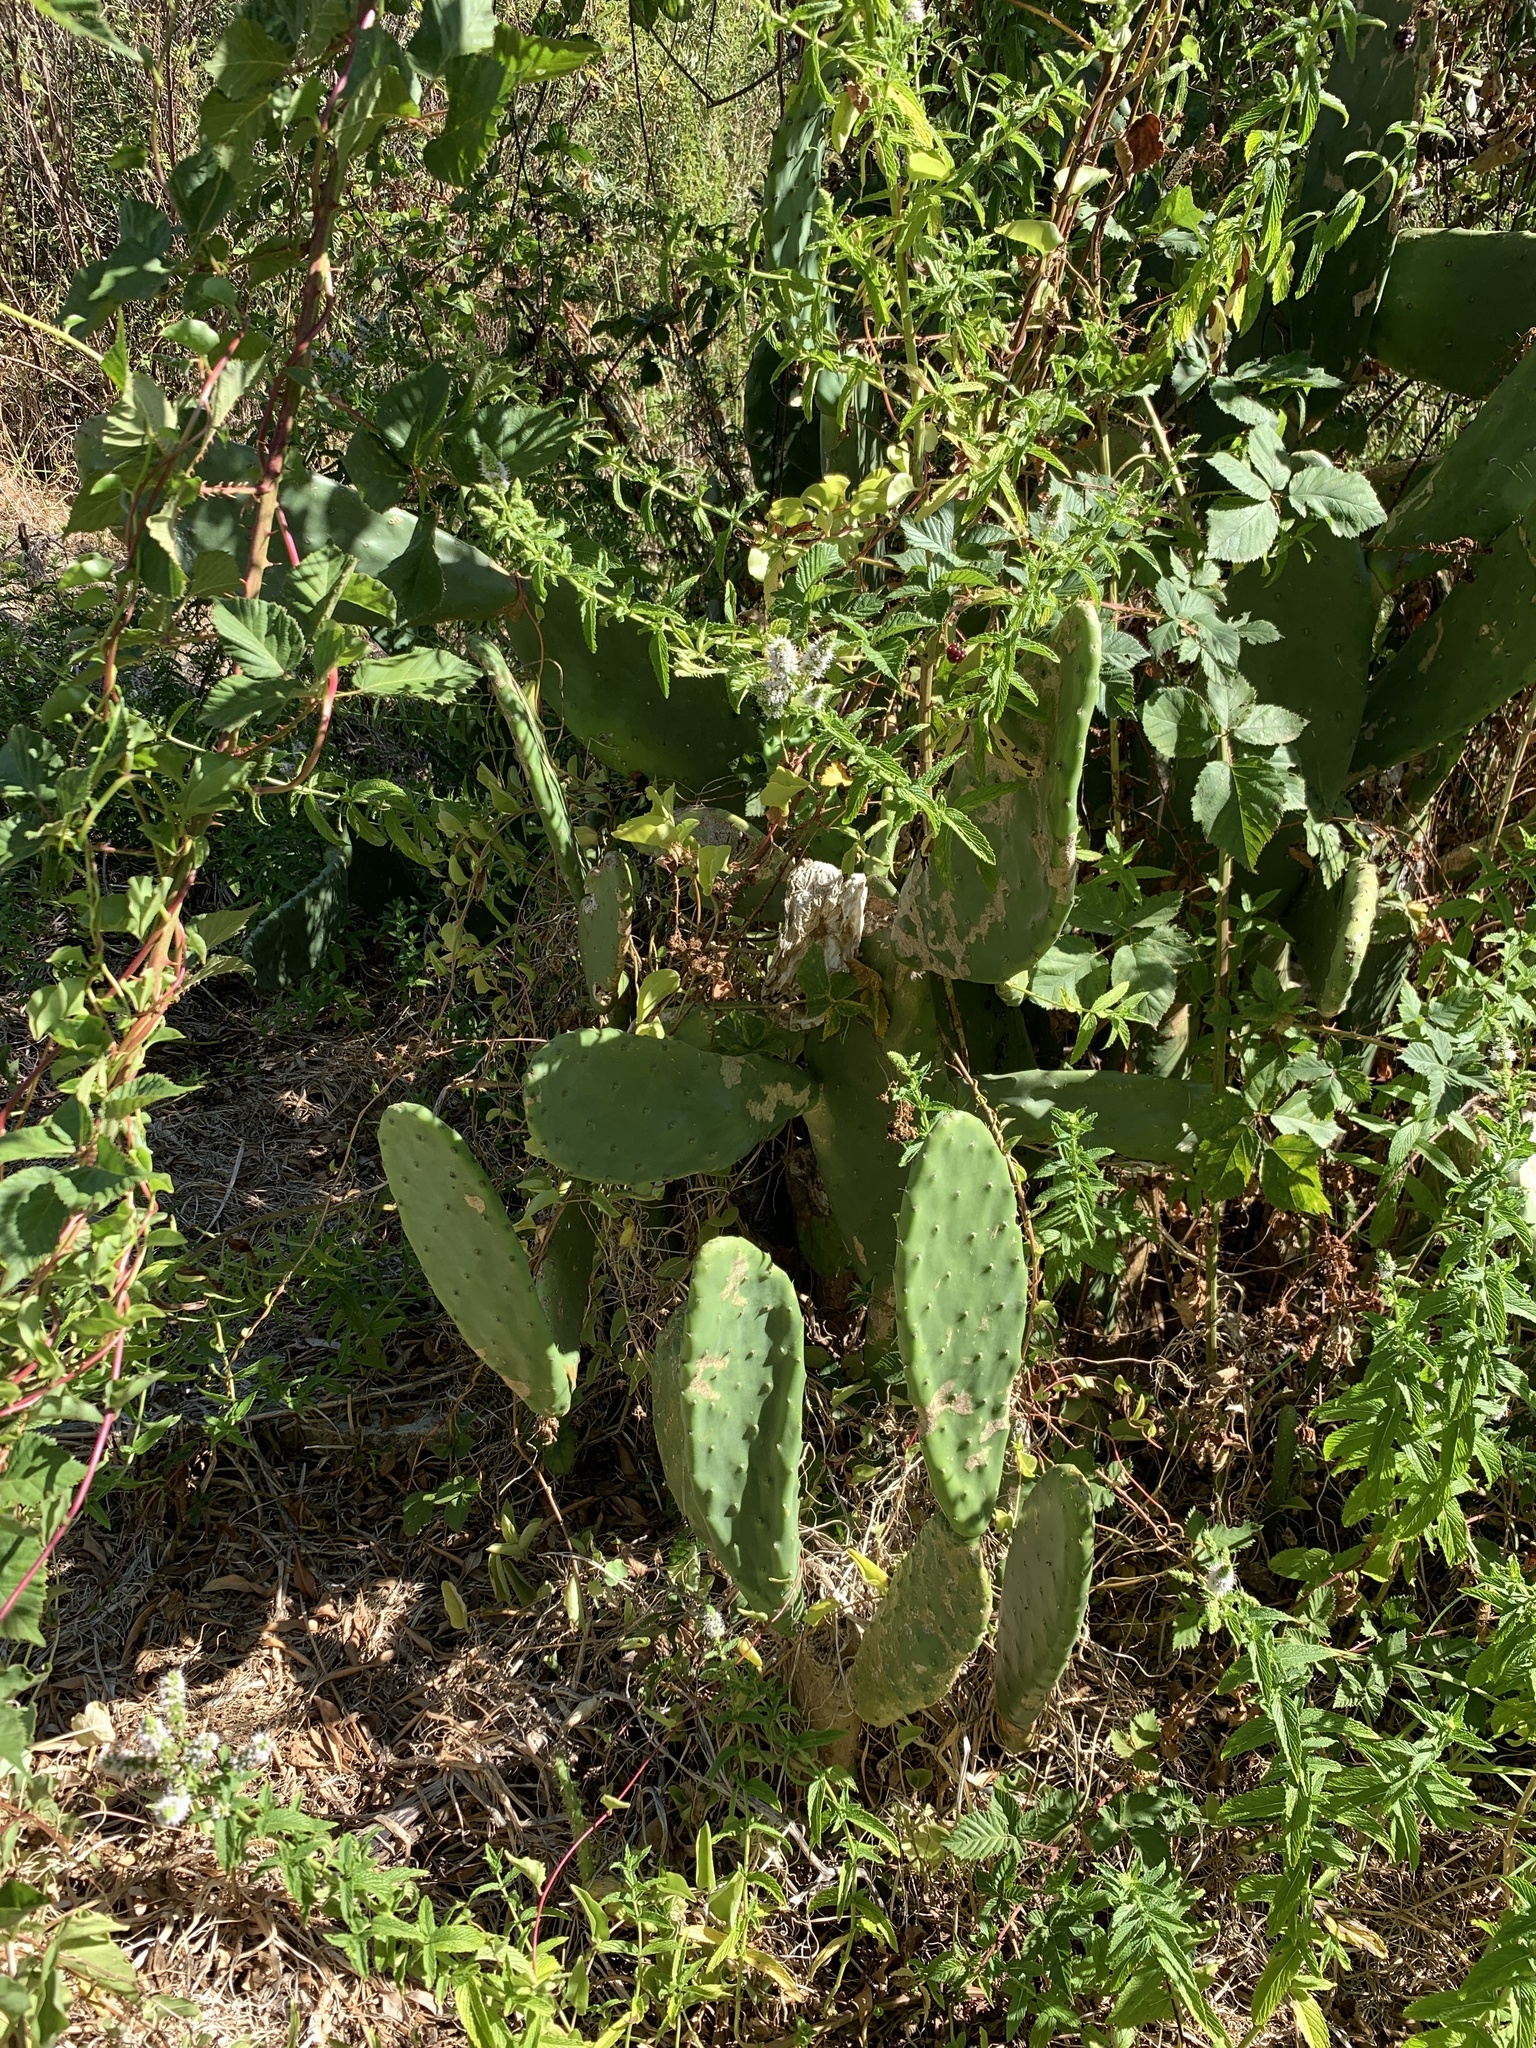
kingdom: Plantae
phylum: Tracheophyta
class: Magnoliopsida
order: Caryophyllales
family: Cactaceae
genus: Opuntia
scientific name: Opuntia ficus-indica
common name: Barbary fig
